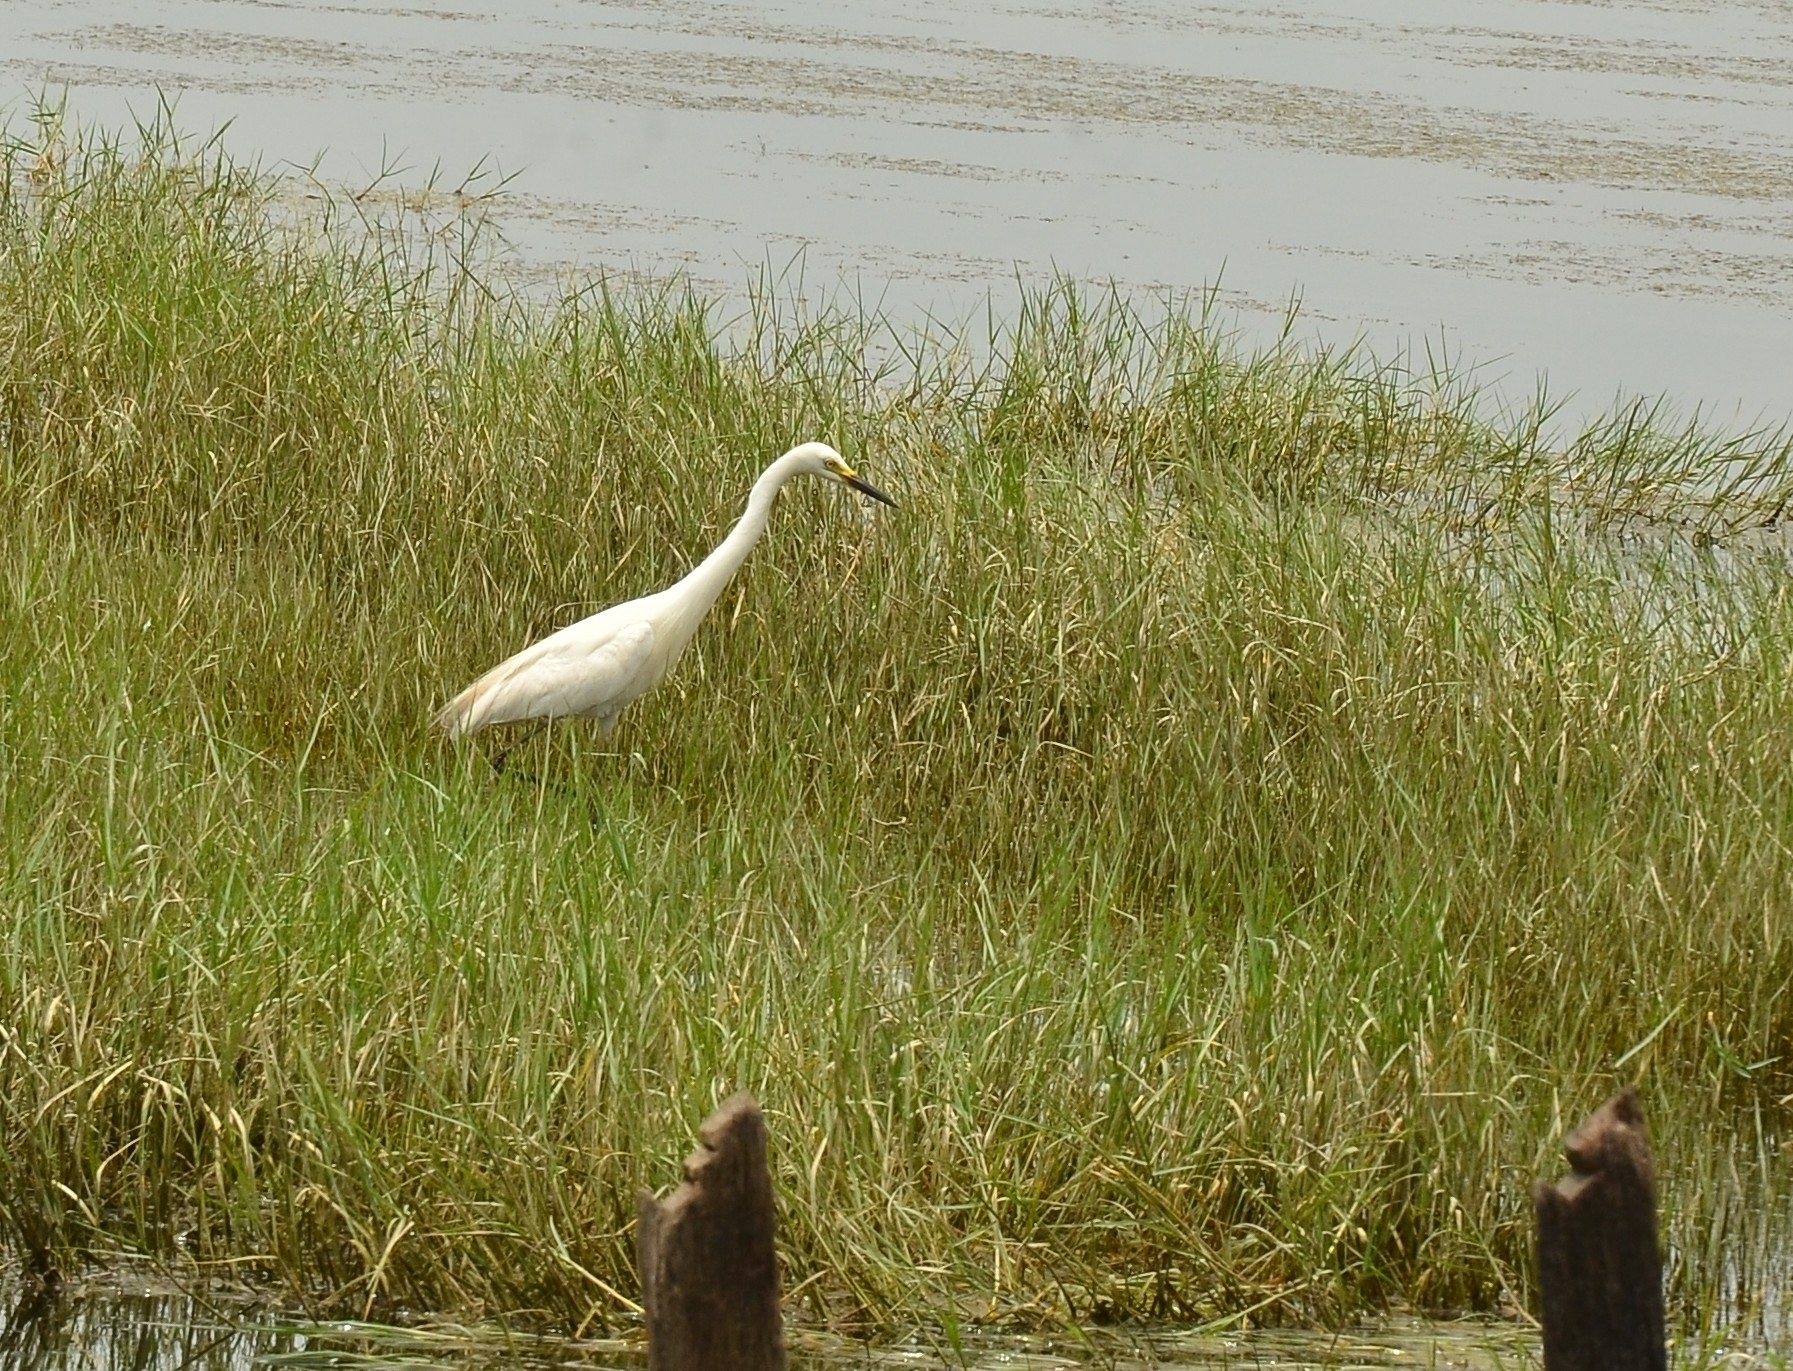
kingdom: Animalia
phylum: Chordata
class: Aves
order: Pelecaniformes
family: Ardeidae
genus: Egretta
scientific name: Egretta intermedia
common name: Intermediate egret
